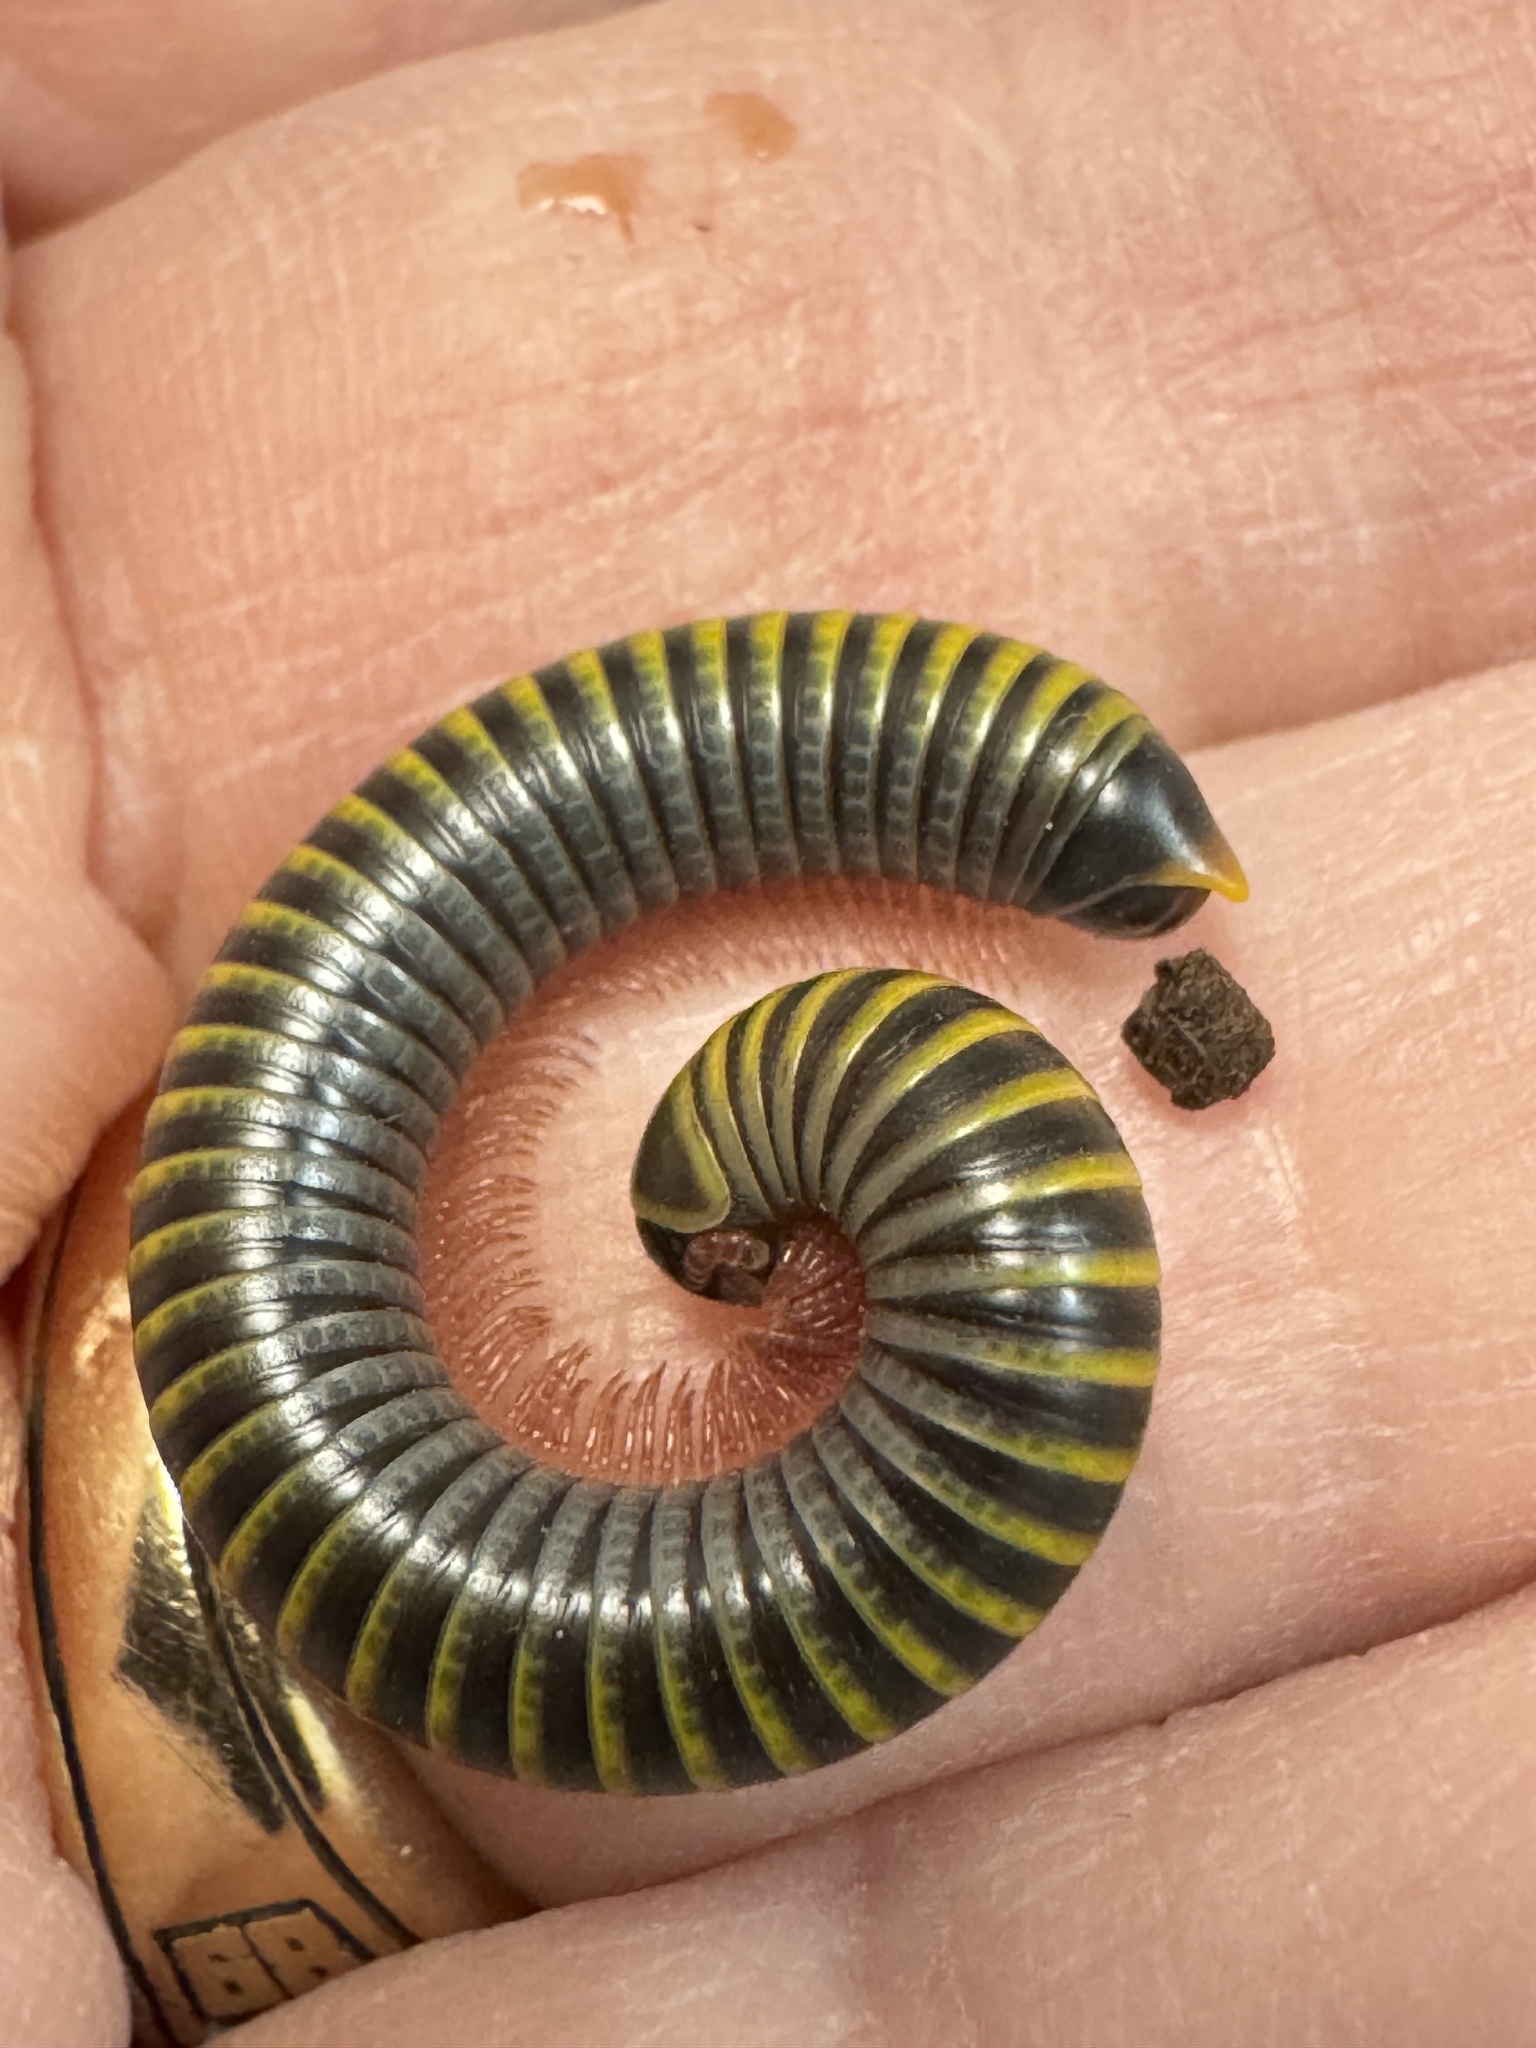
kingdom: Animalia
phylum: Arthropoda
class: Diplopoda
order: Spirobolida
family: Rhinocricidae
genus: Anadenobolus
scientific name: Anadenobolus monilicornis
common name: Caribbean millipede
